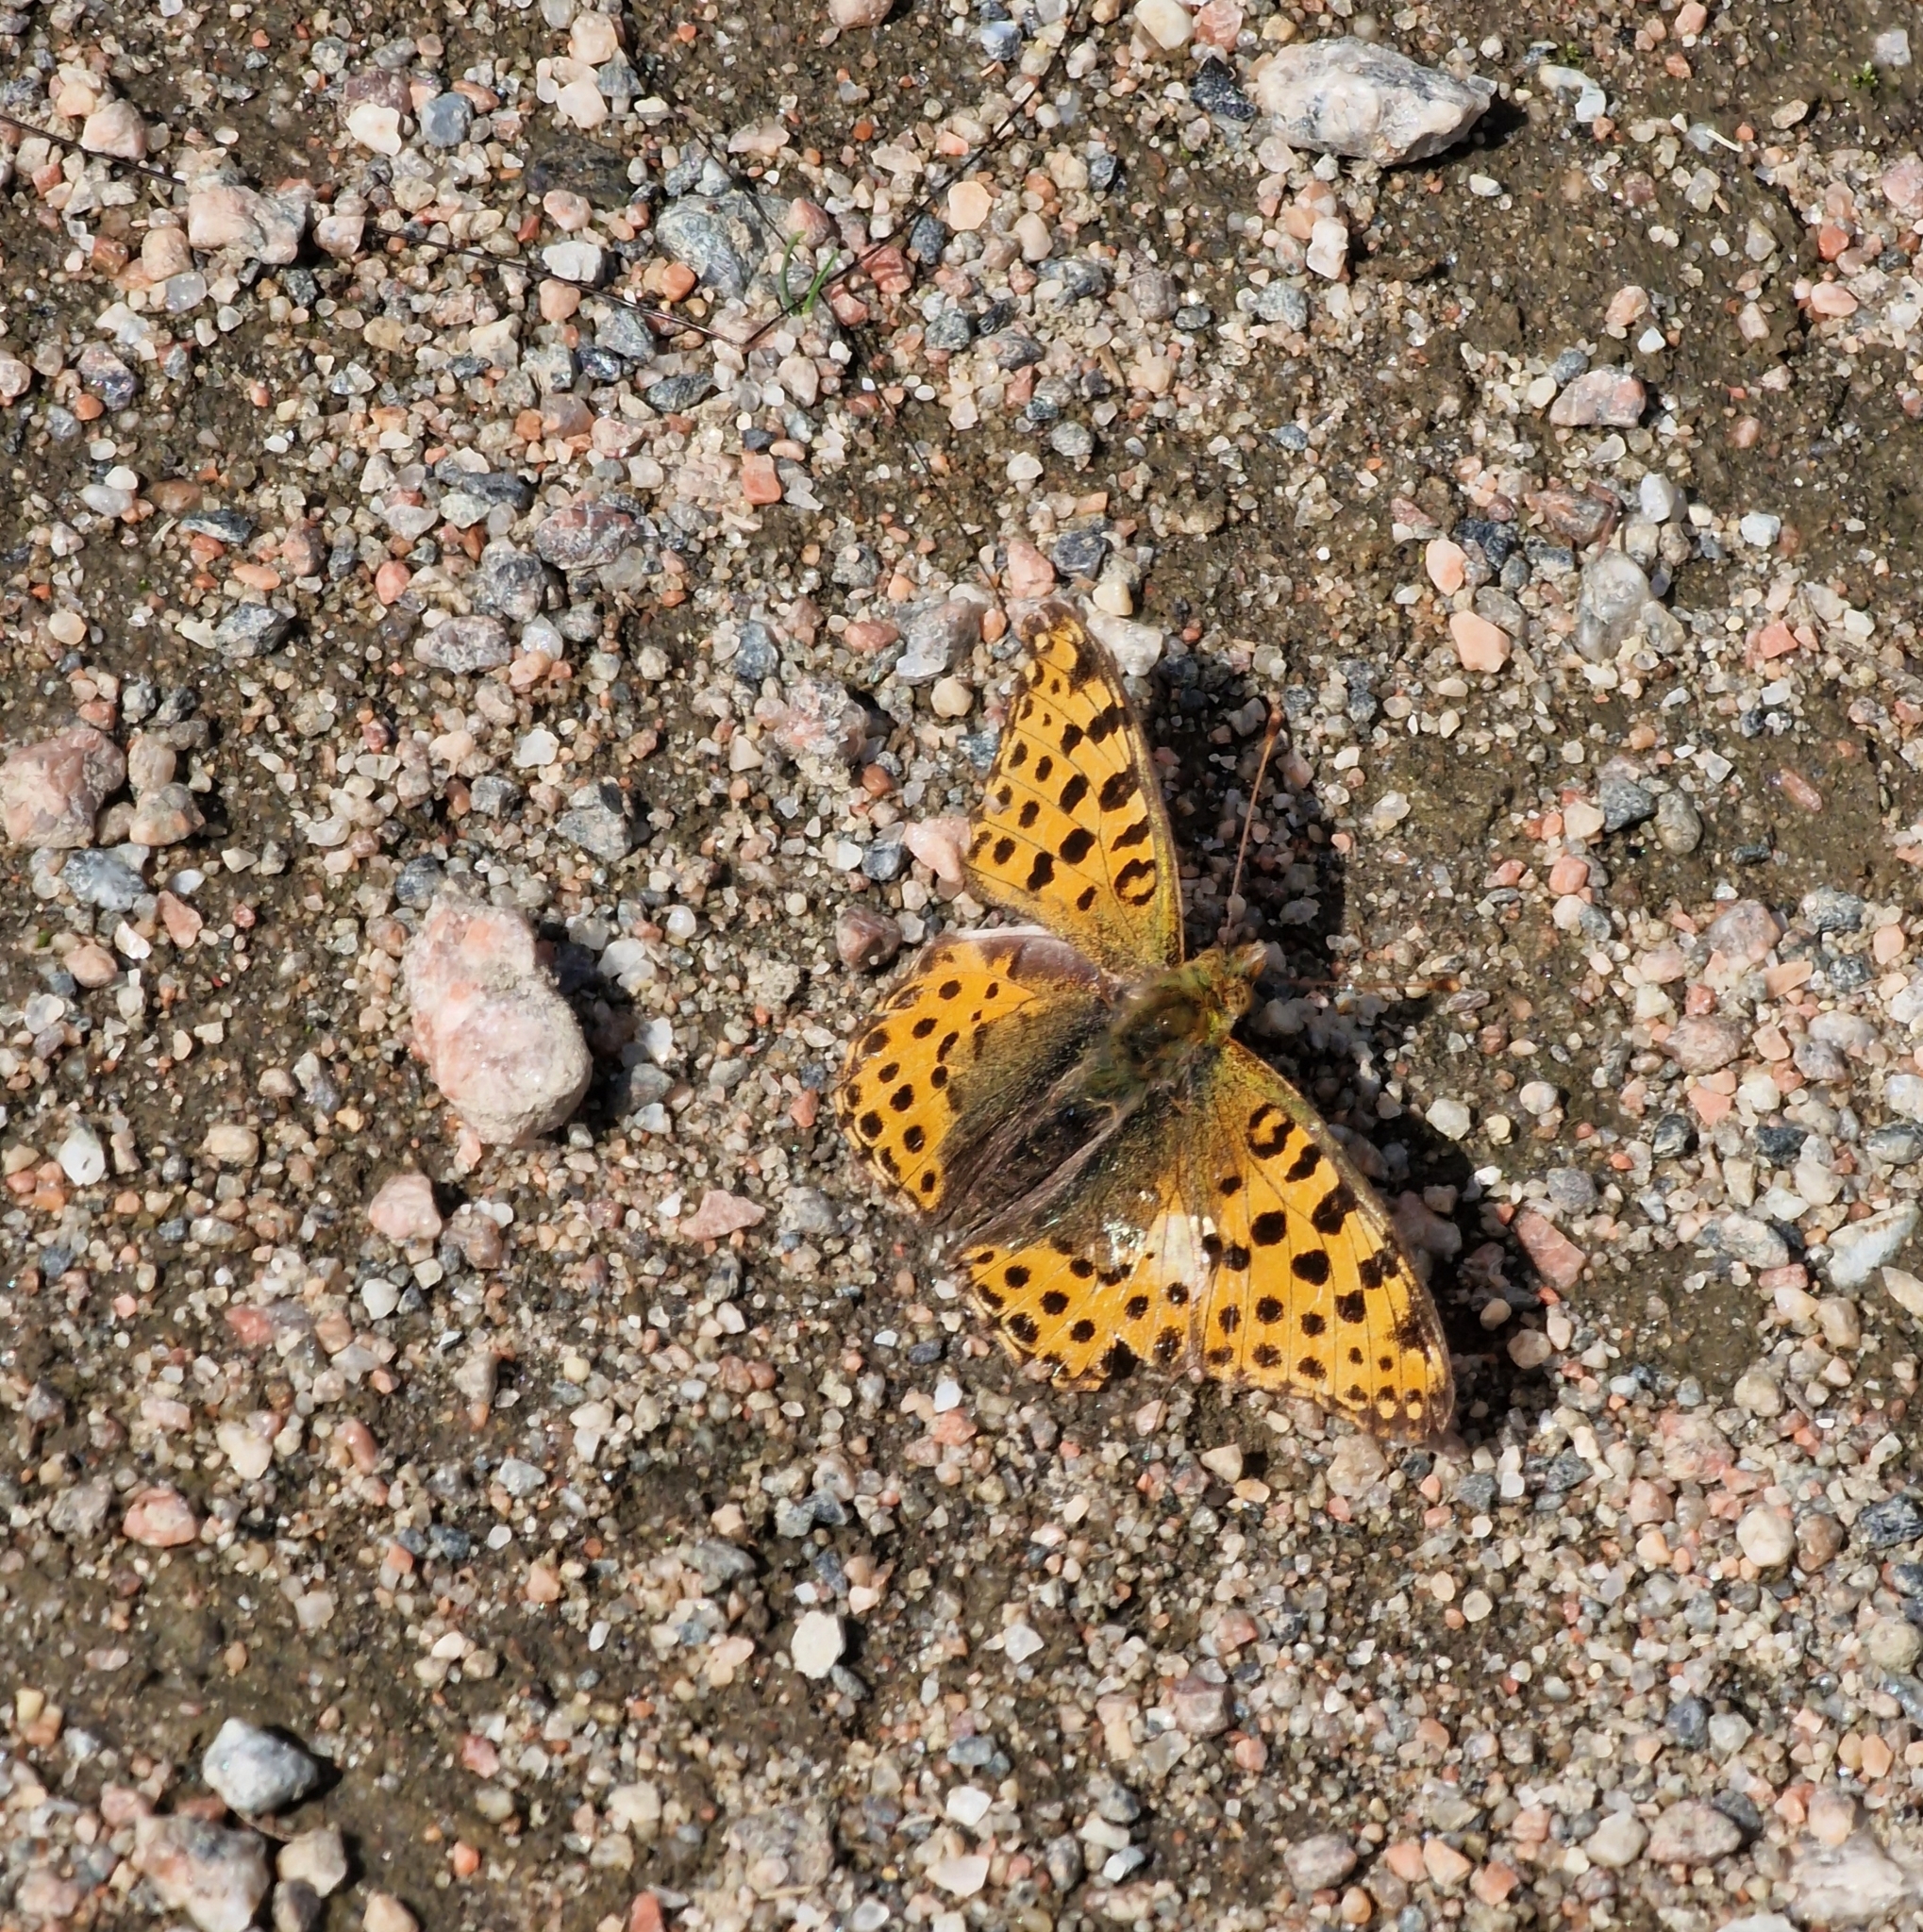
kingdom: Animalia
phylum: Arthropoda
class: Insecta
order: Lepidoptera
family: Nymphalidae
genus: Issoria
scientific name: Issoria lathonia
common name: Queen of spain fritillary
